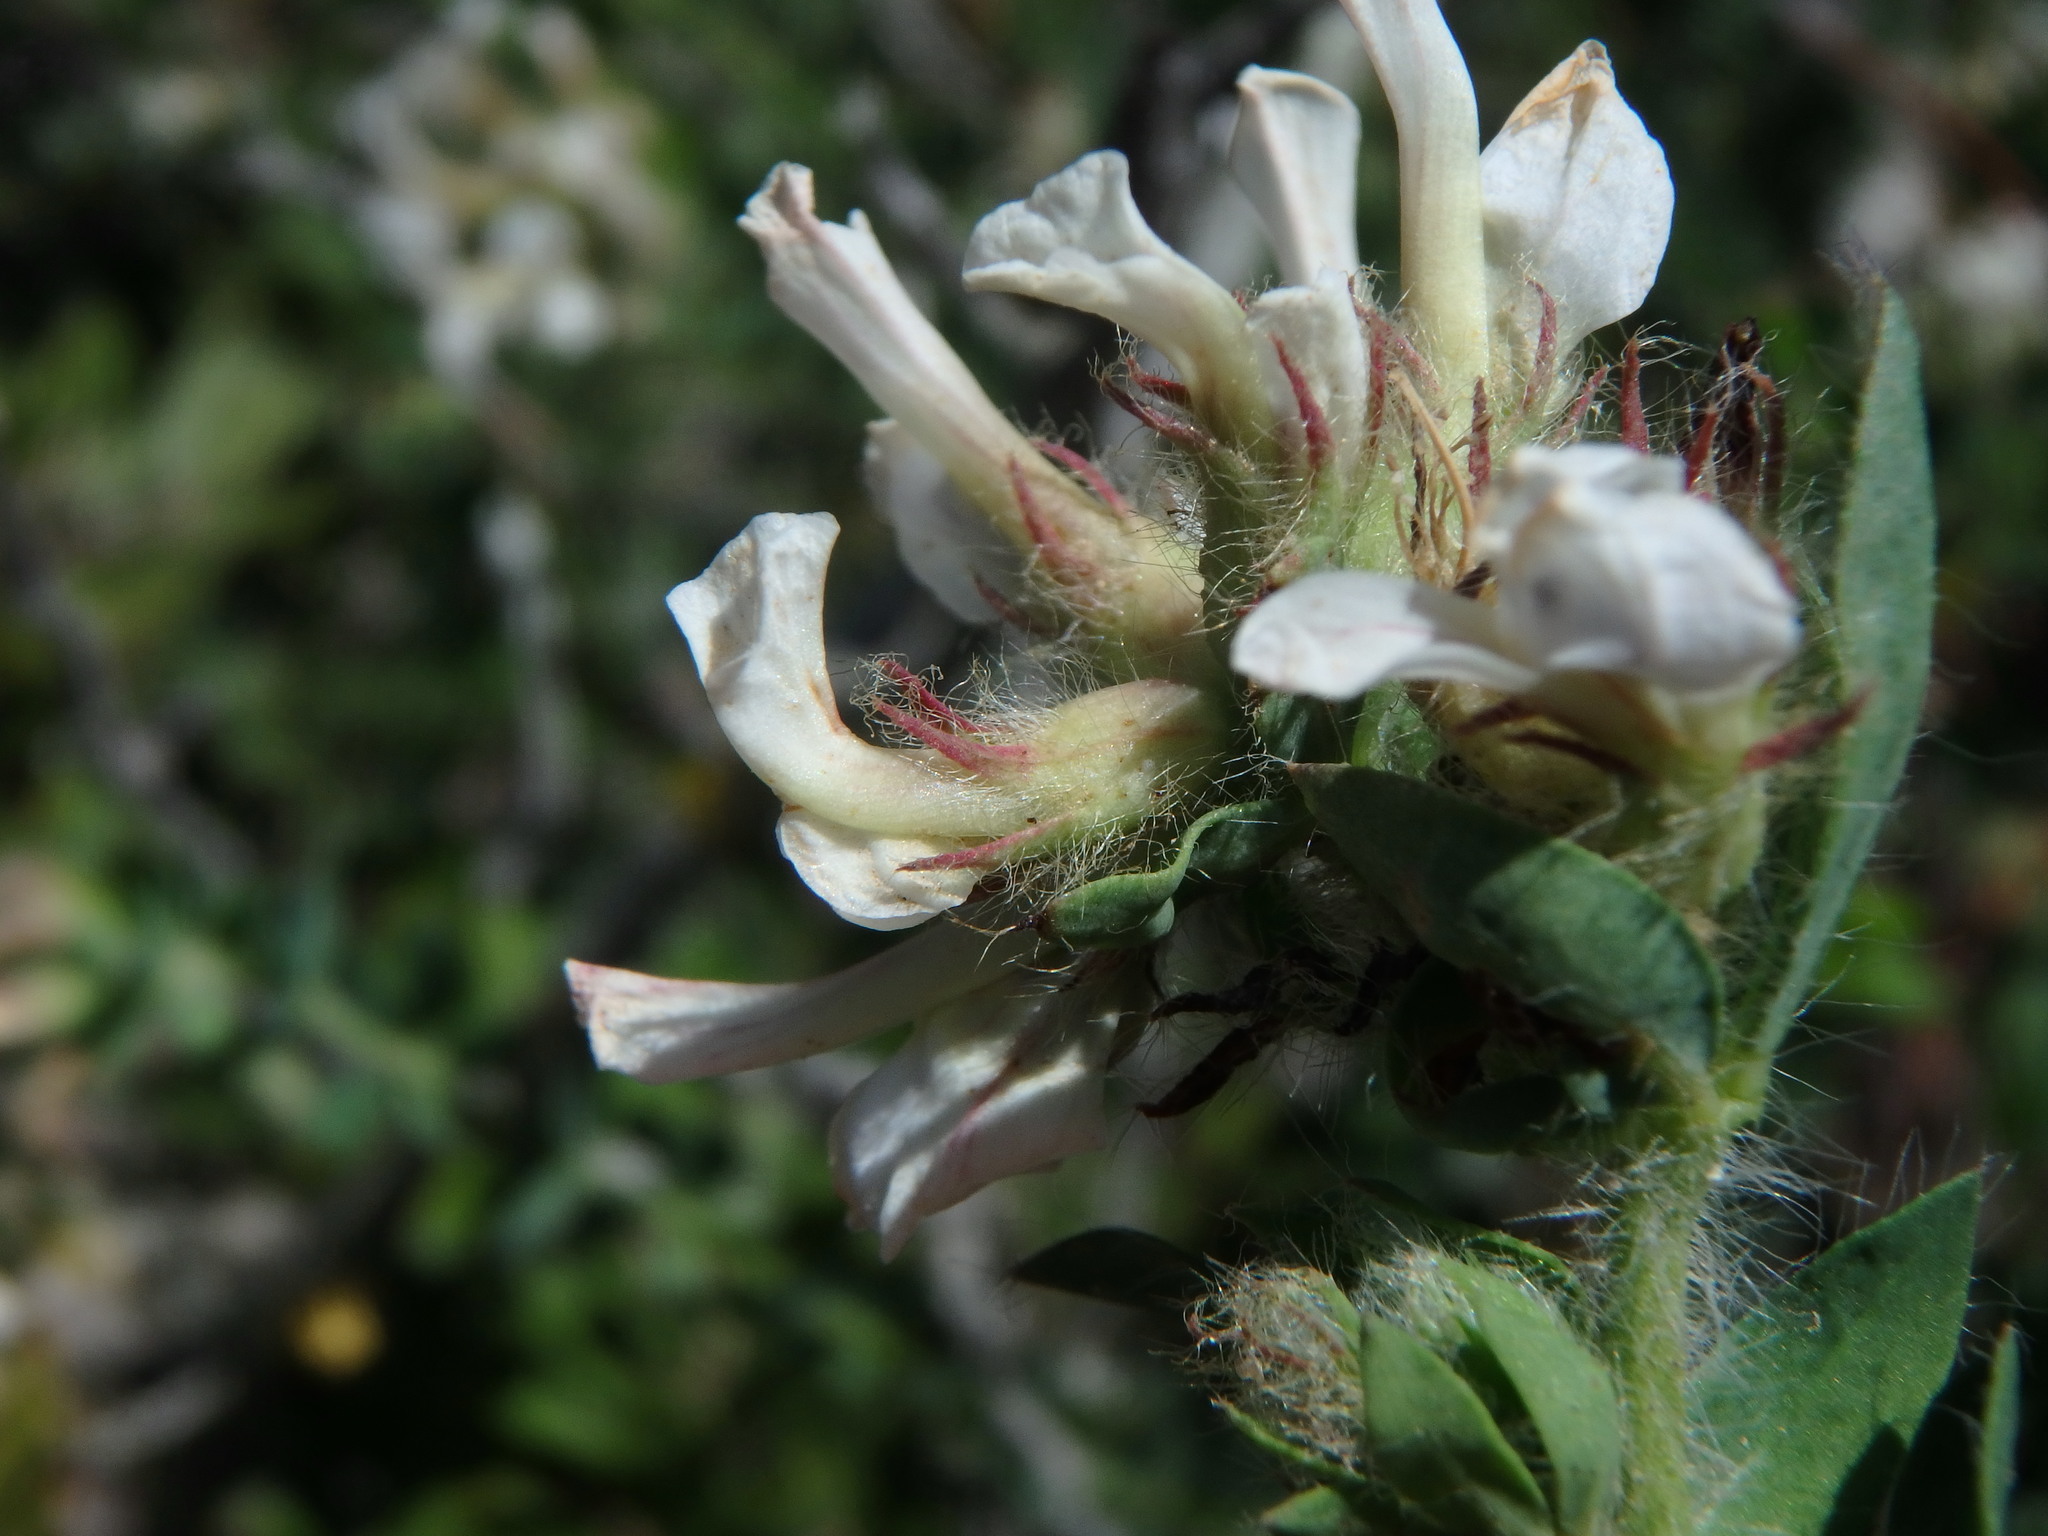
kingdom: Plantae
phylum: Tracheophyta
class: Magnoliopsida
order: Fabales
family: Fabaceae
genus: Lotus
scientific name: Lotus hirsutus
